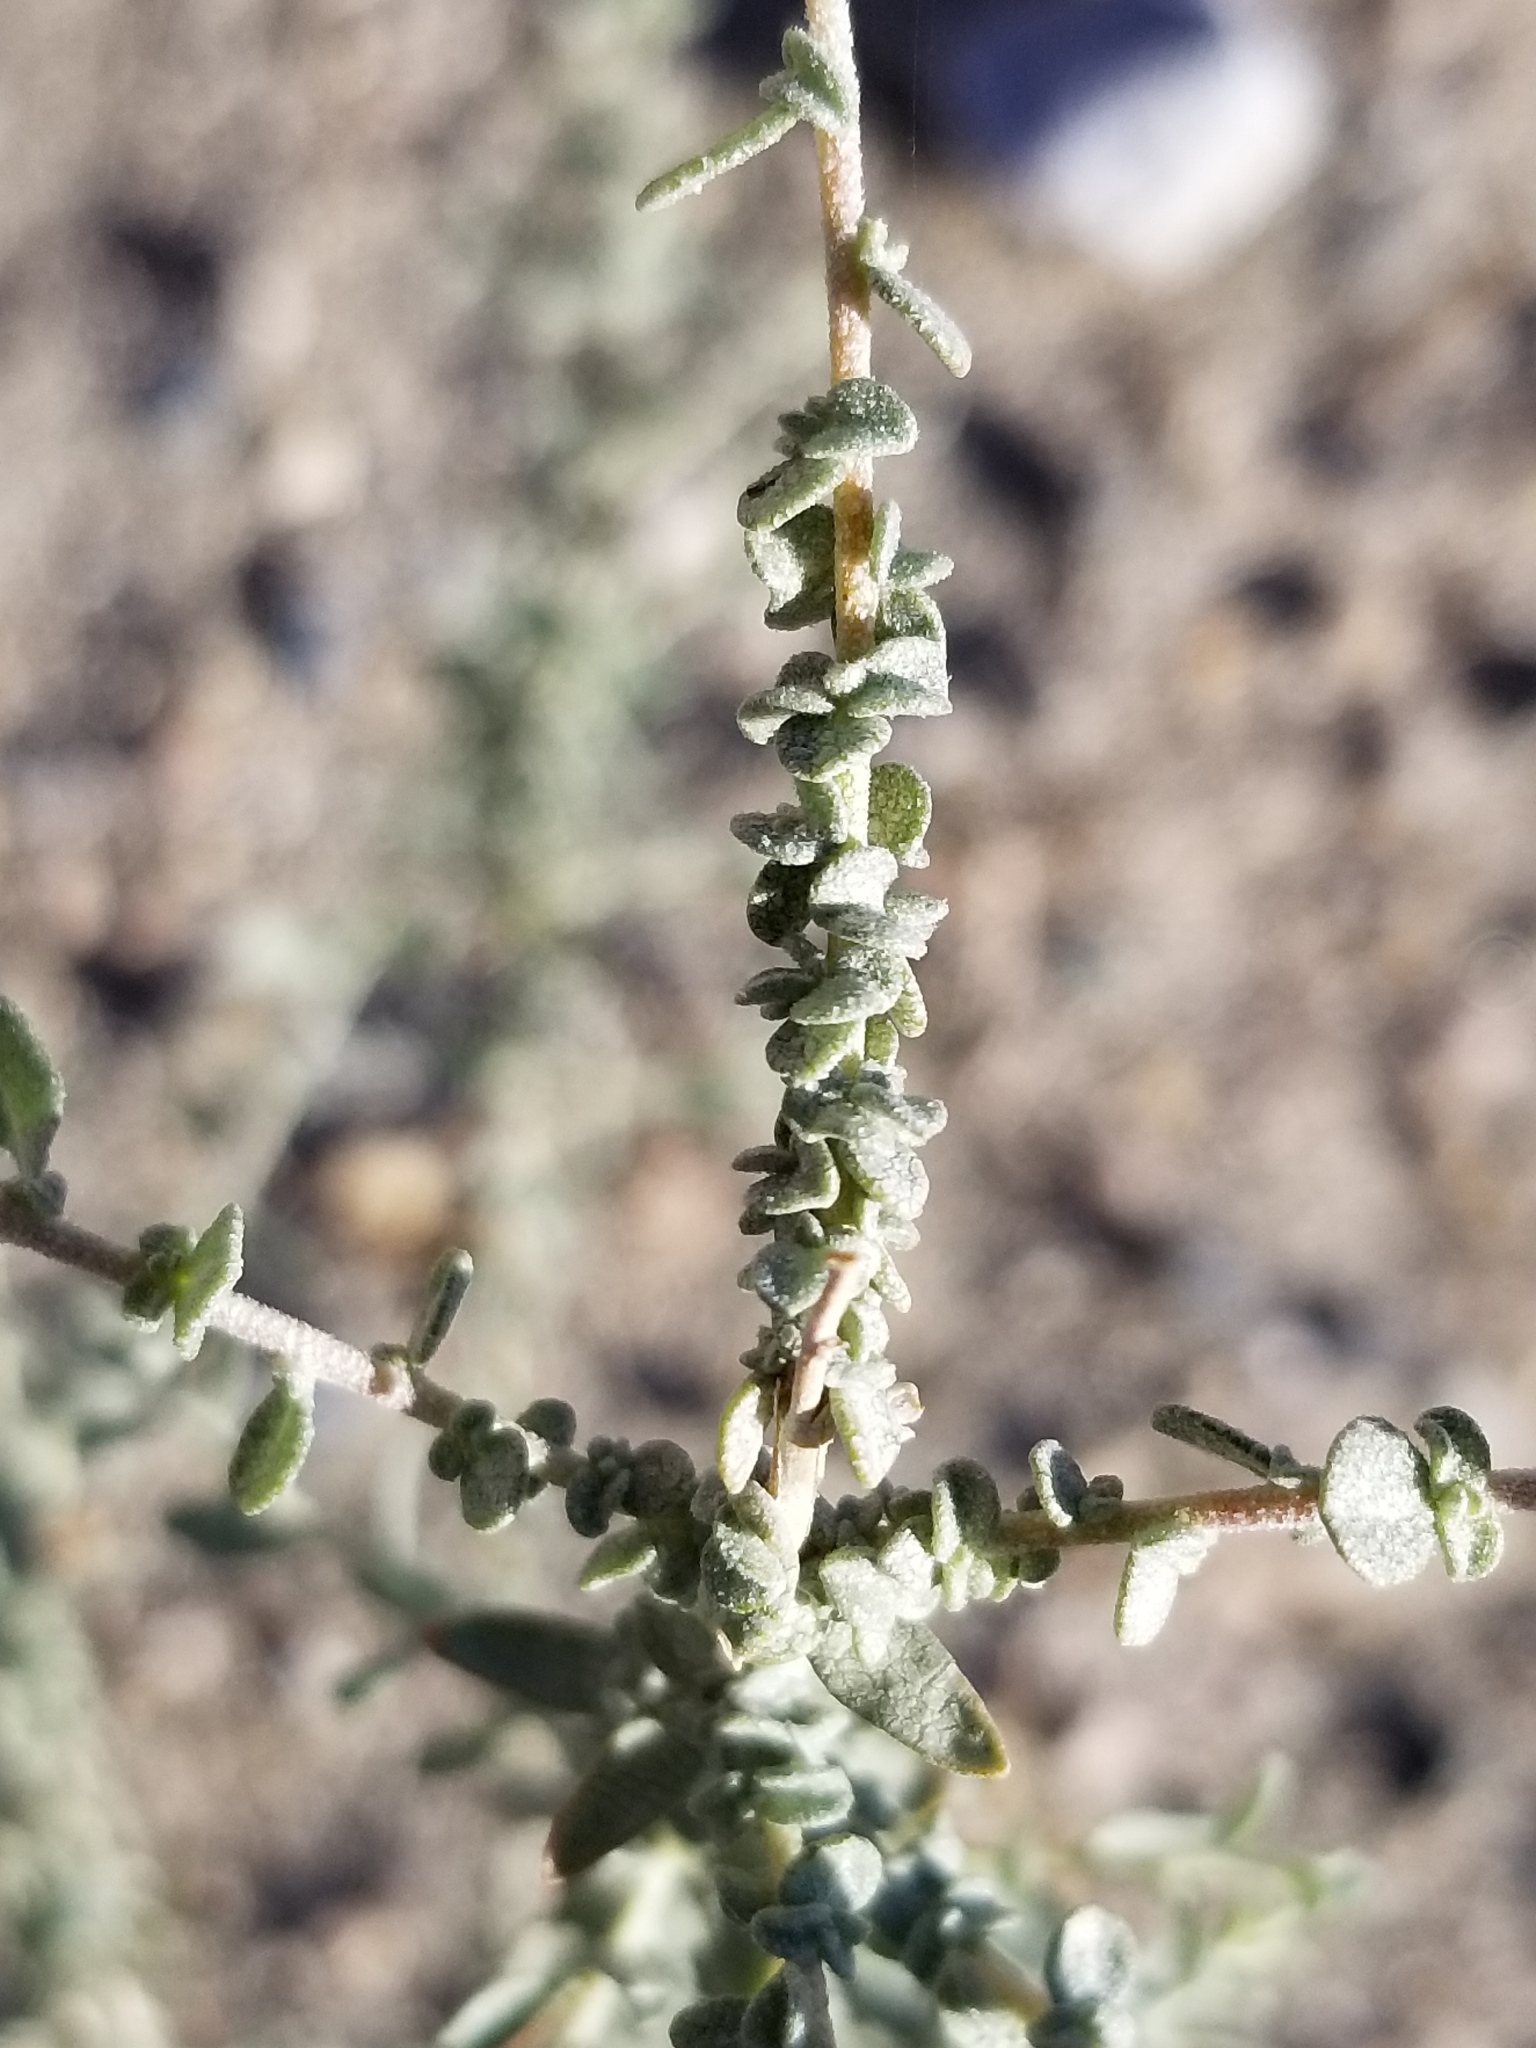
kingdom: Plantae
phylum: Tracheophyta
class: Magnoliopsida
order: Caryophyllales
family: Amaranthaceae
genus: Atriplex
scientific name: Atriplex polycarpa
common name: Desert saltbush
